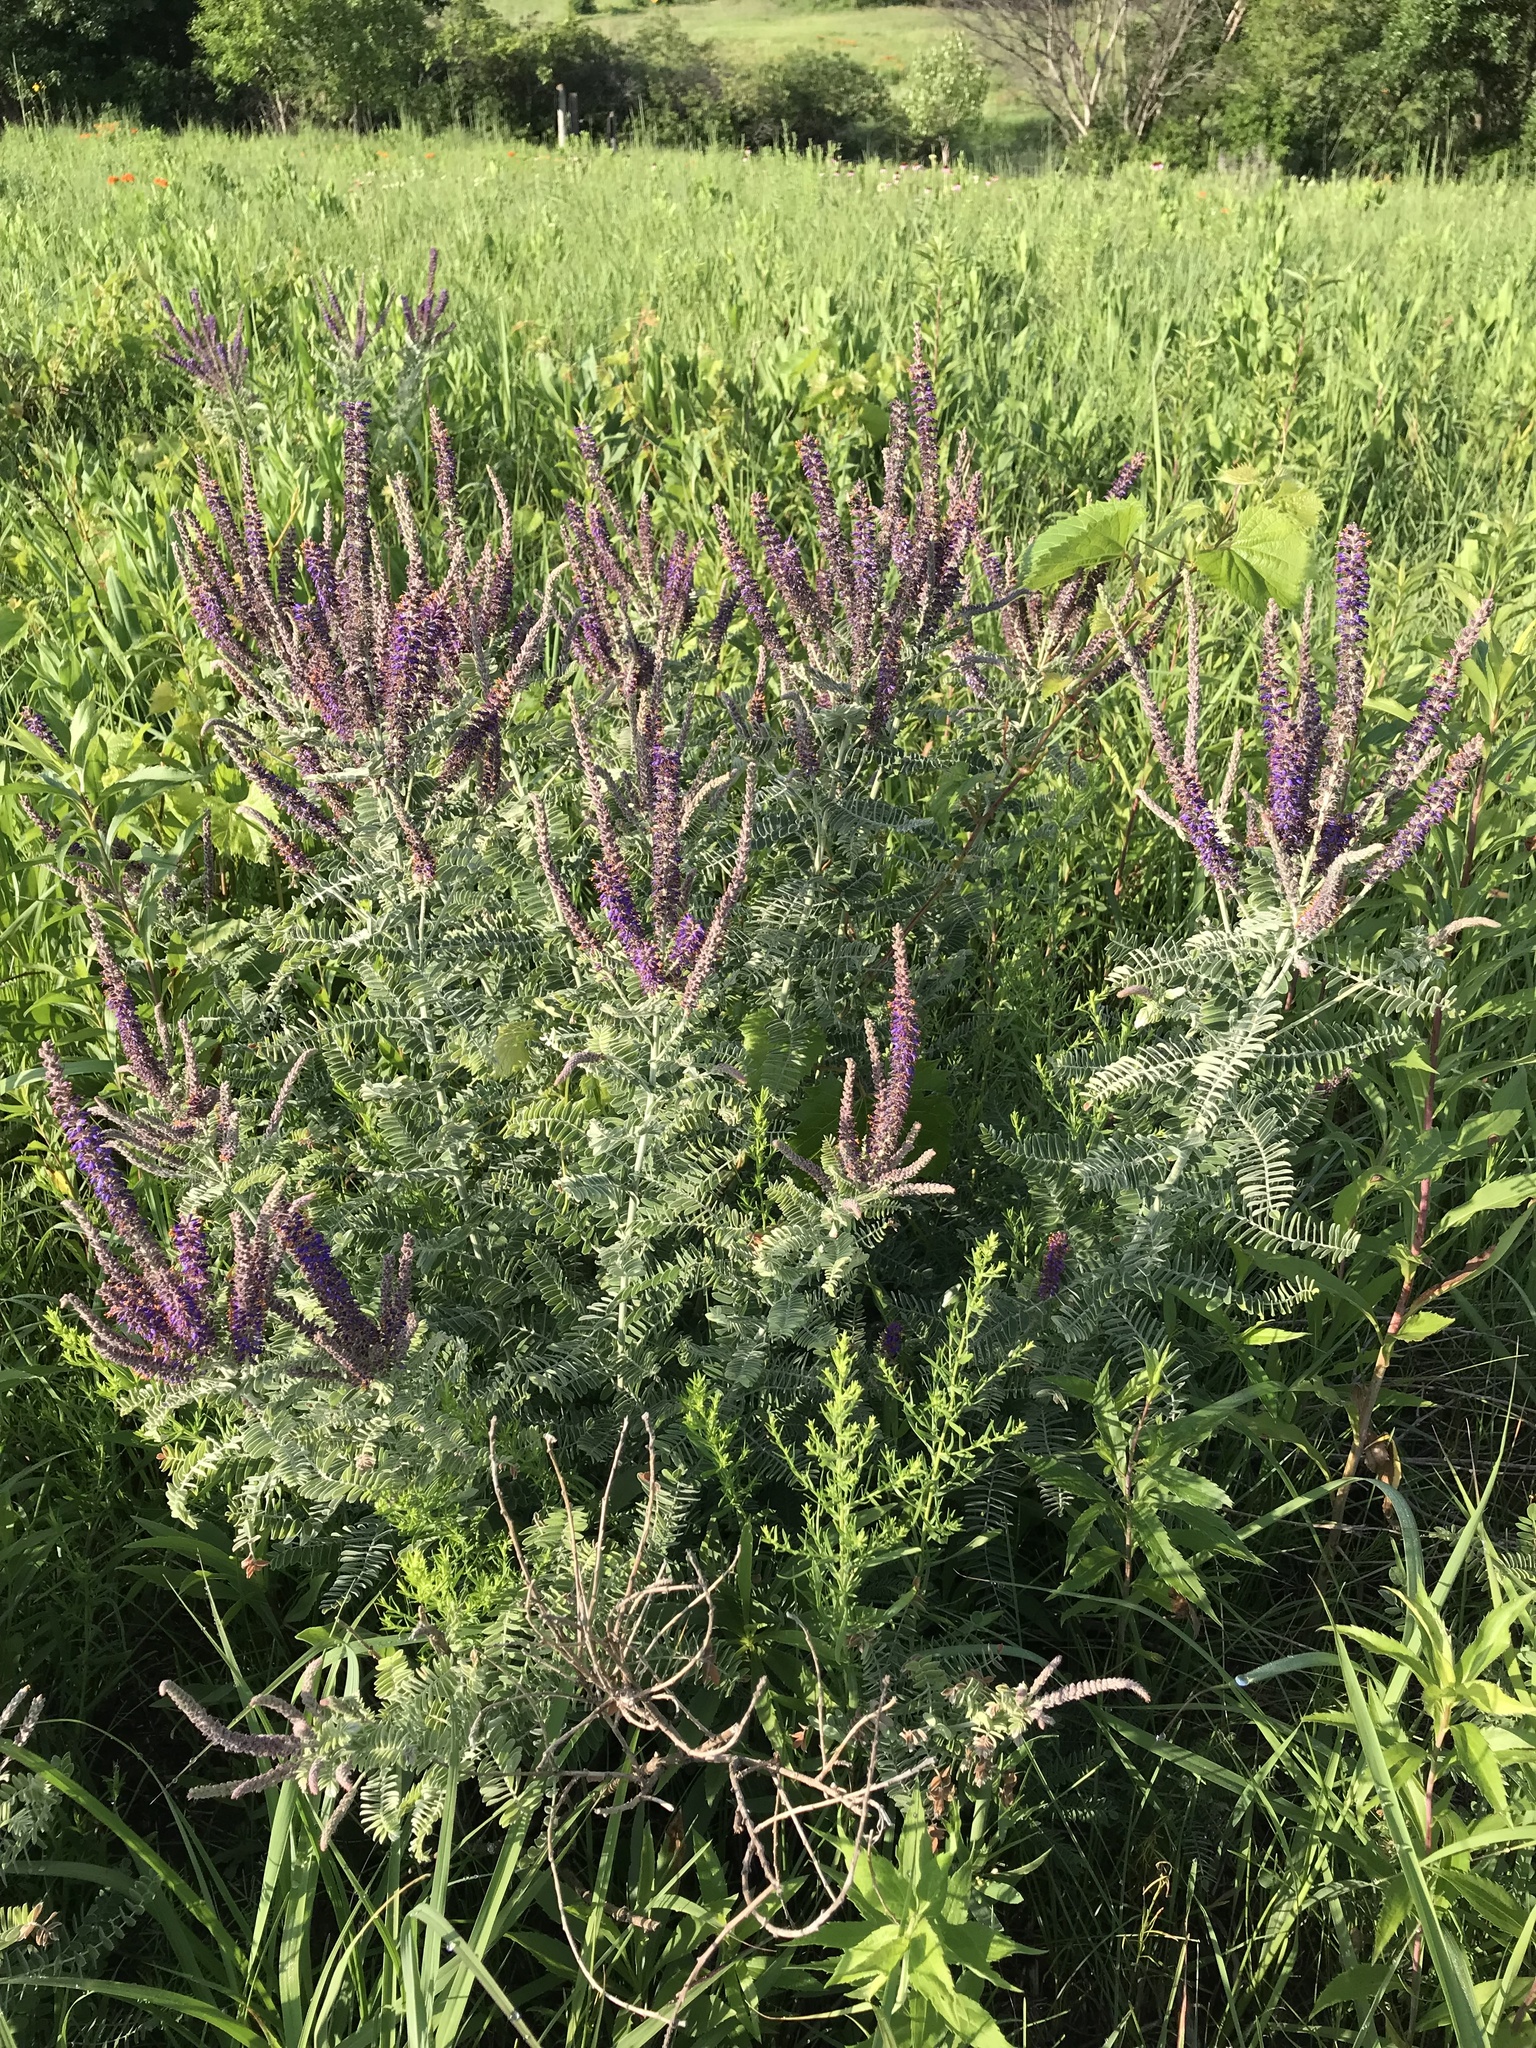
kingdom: Plantae
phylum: Tracheophyta
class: Magnoliopsida
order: Fabales
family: Fabaceae
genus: Amorpha
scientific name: Amorpha canescens
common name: Leadplant
